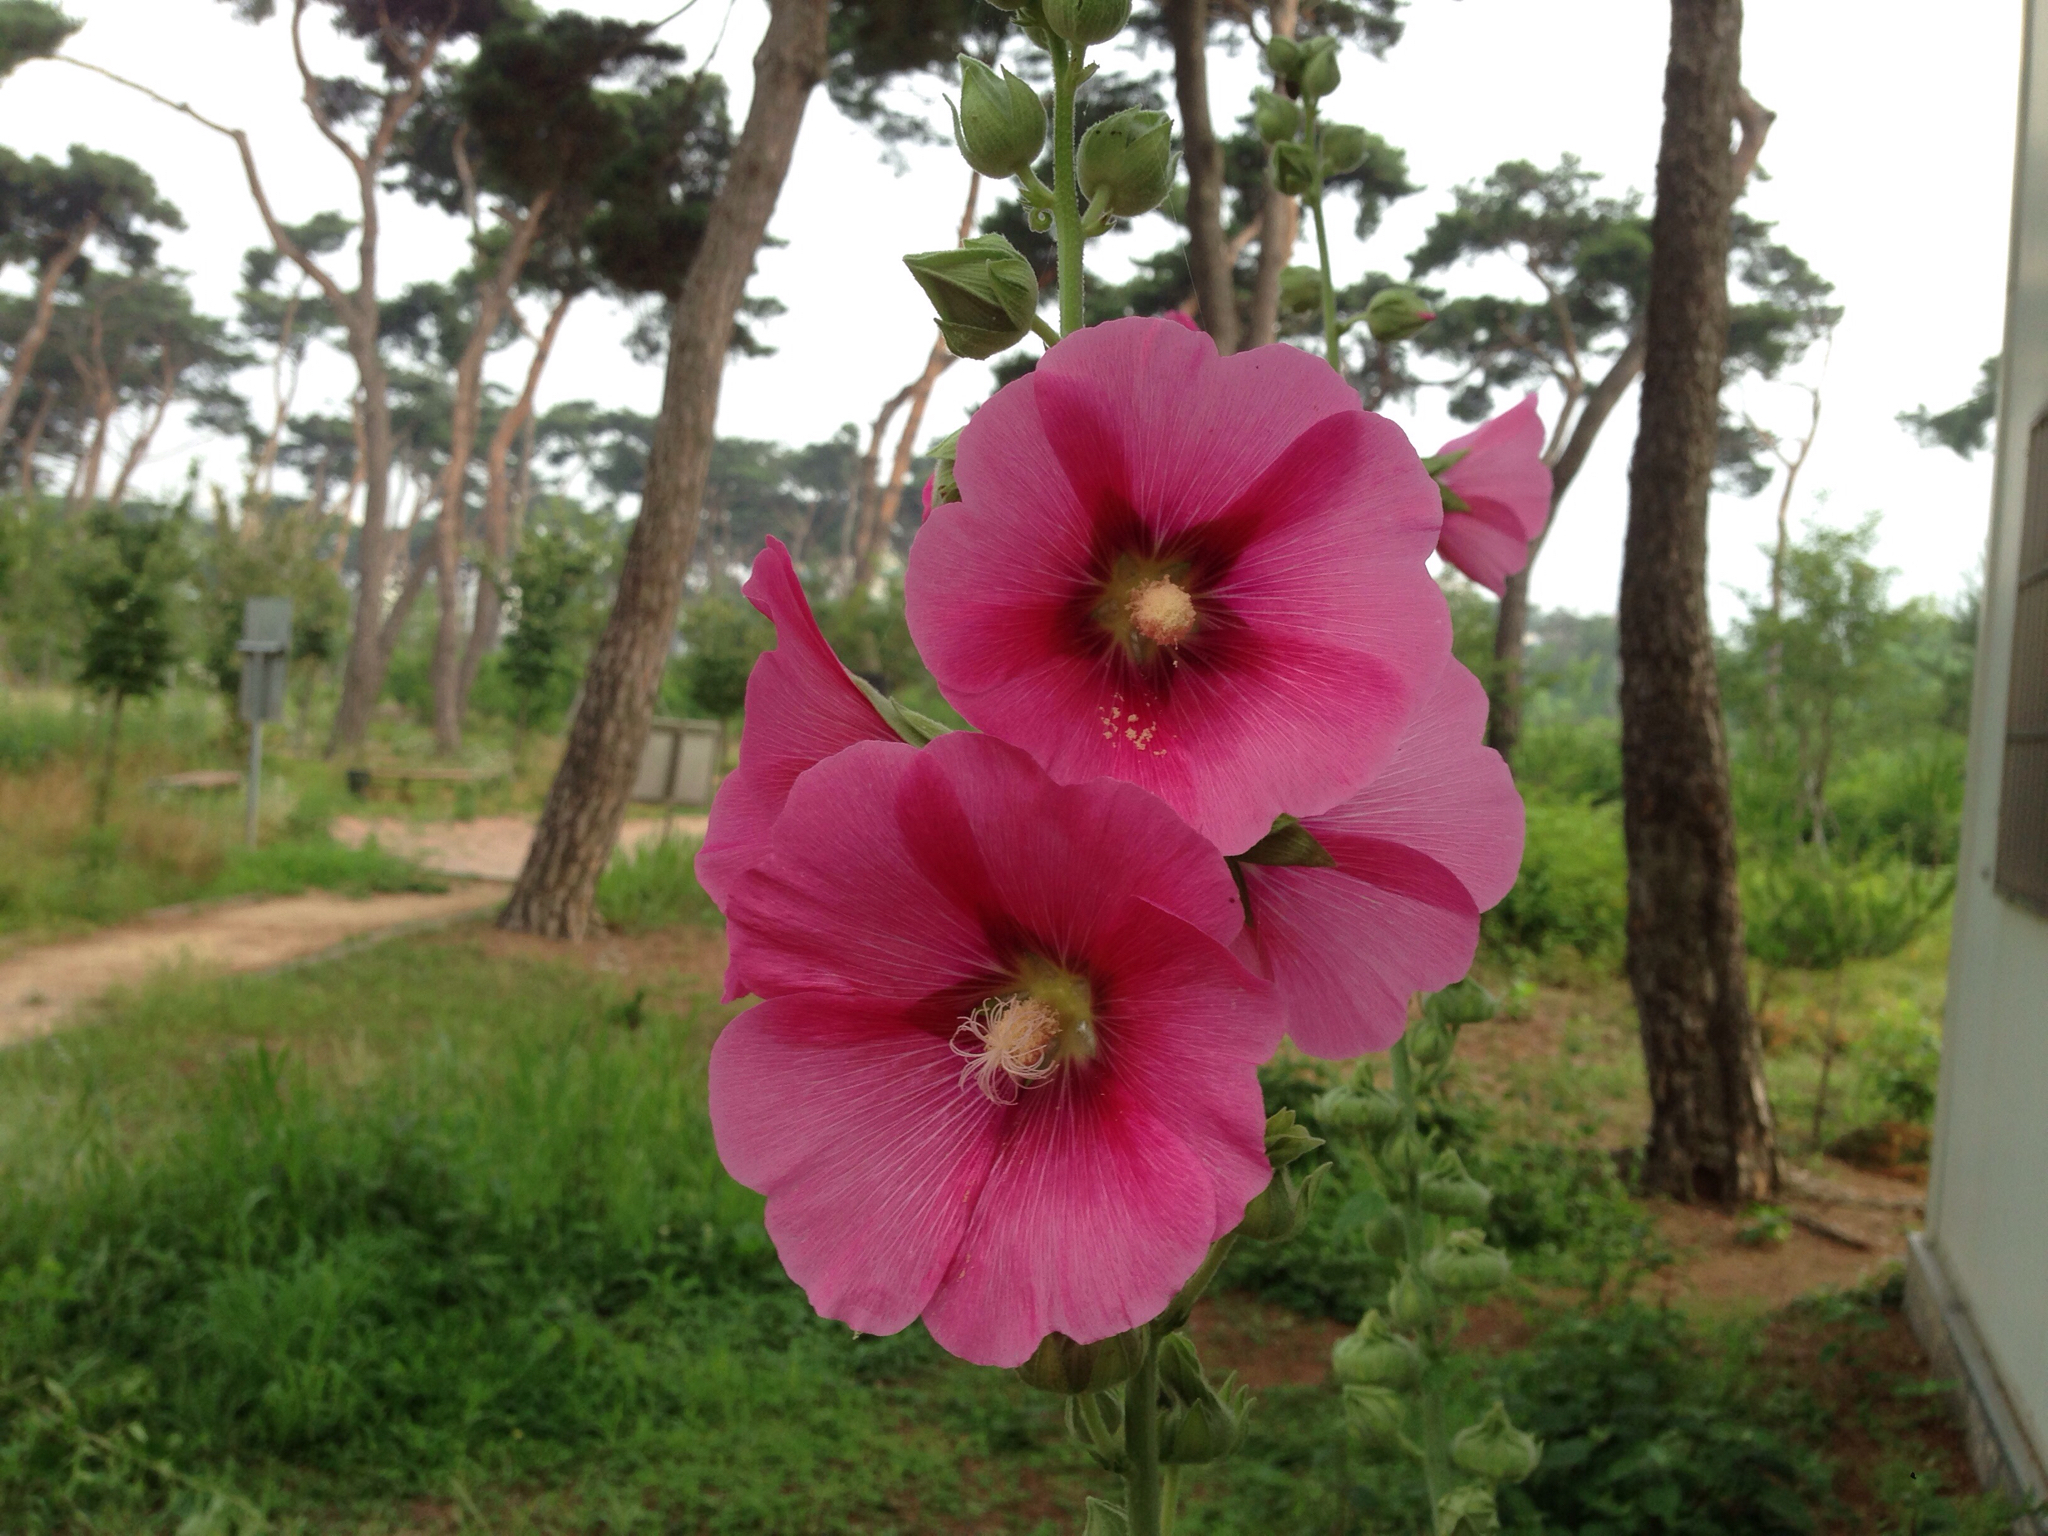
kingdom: Plantae
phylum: Tracheophyta
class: Magnoliopsida
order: Malvales
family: Malvaceae
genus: Alcea
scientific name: Alcea rosea
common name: Hollyhock
